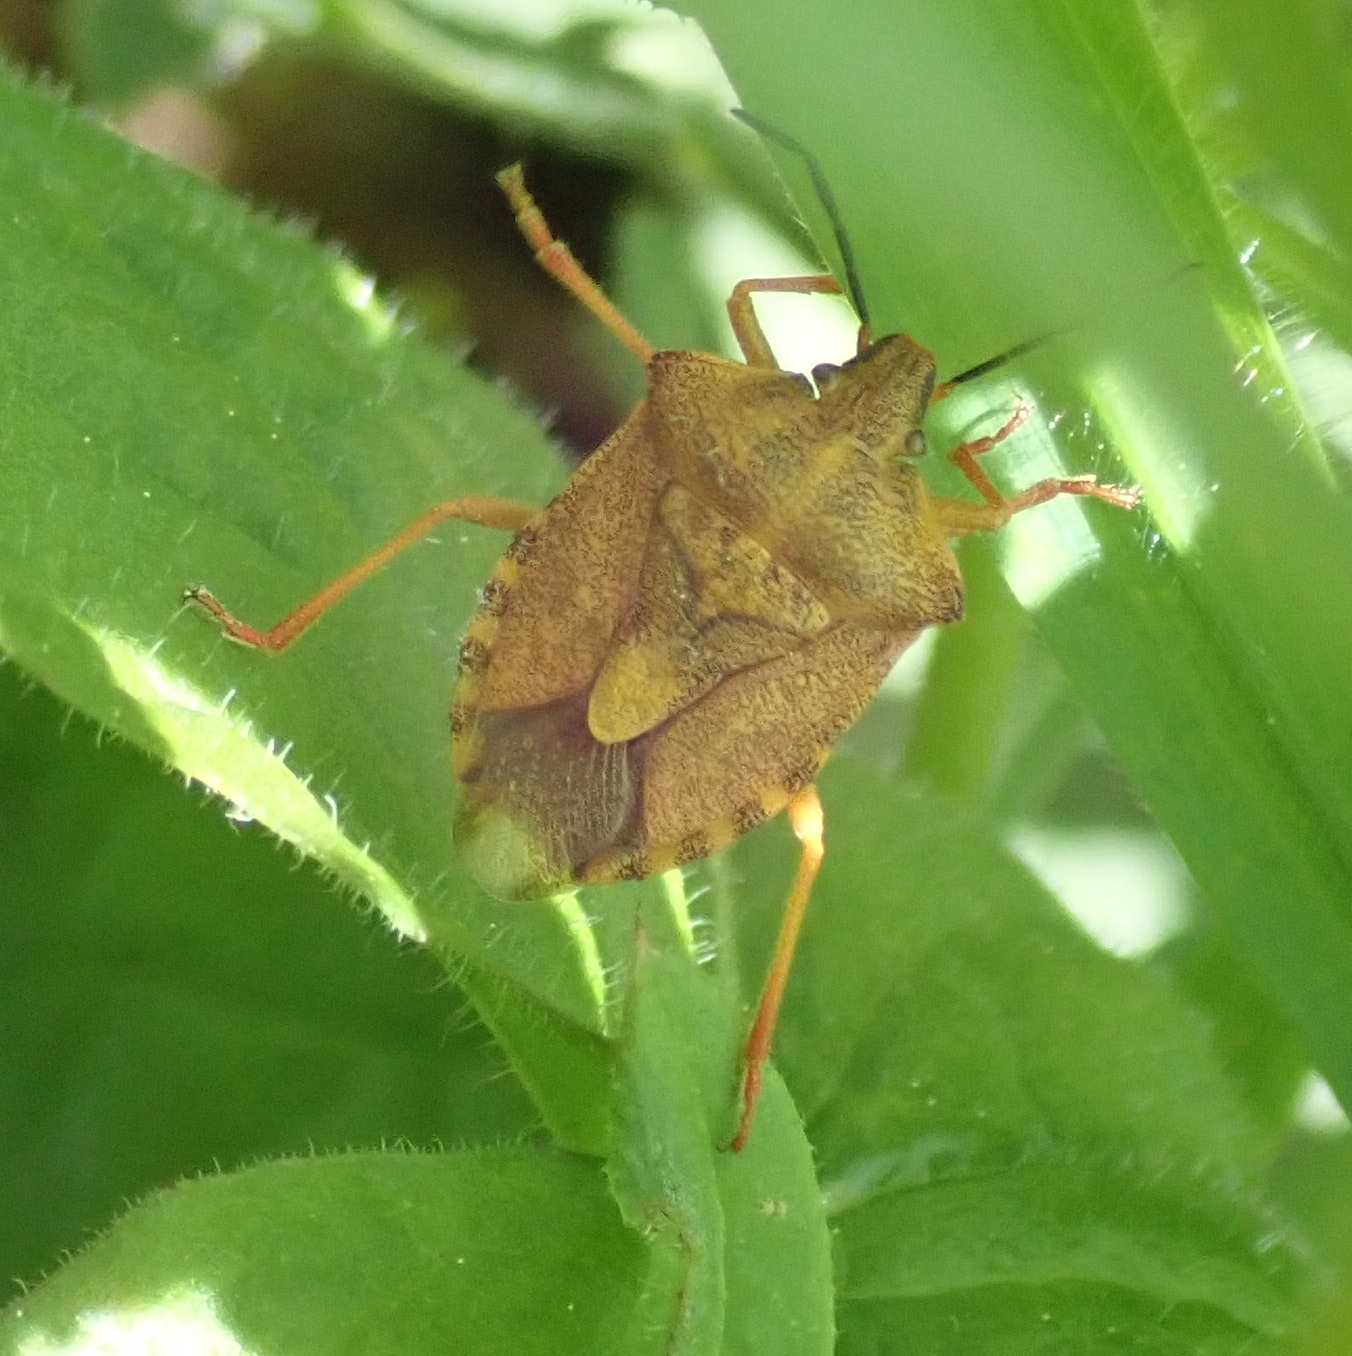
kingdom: Animalia
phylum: Arthropoda
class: Insecta
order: Hemiptera
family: Pentatomidae
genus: Carpocoris
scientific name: Carpocoris purpureipennis
